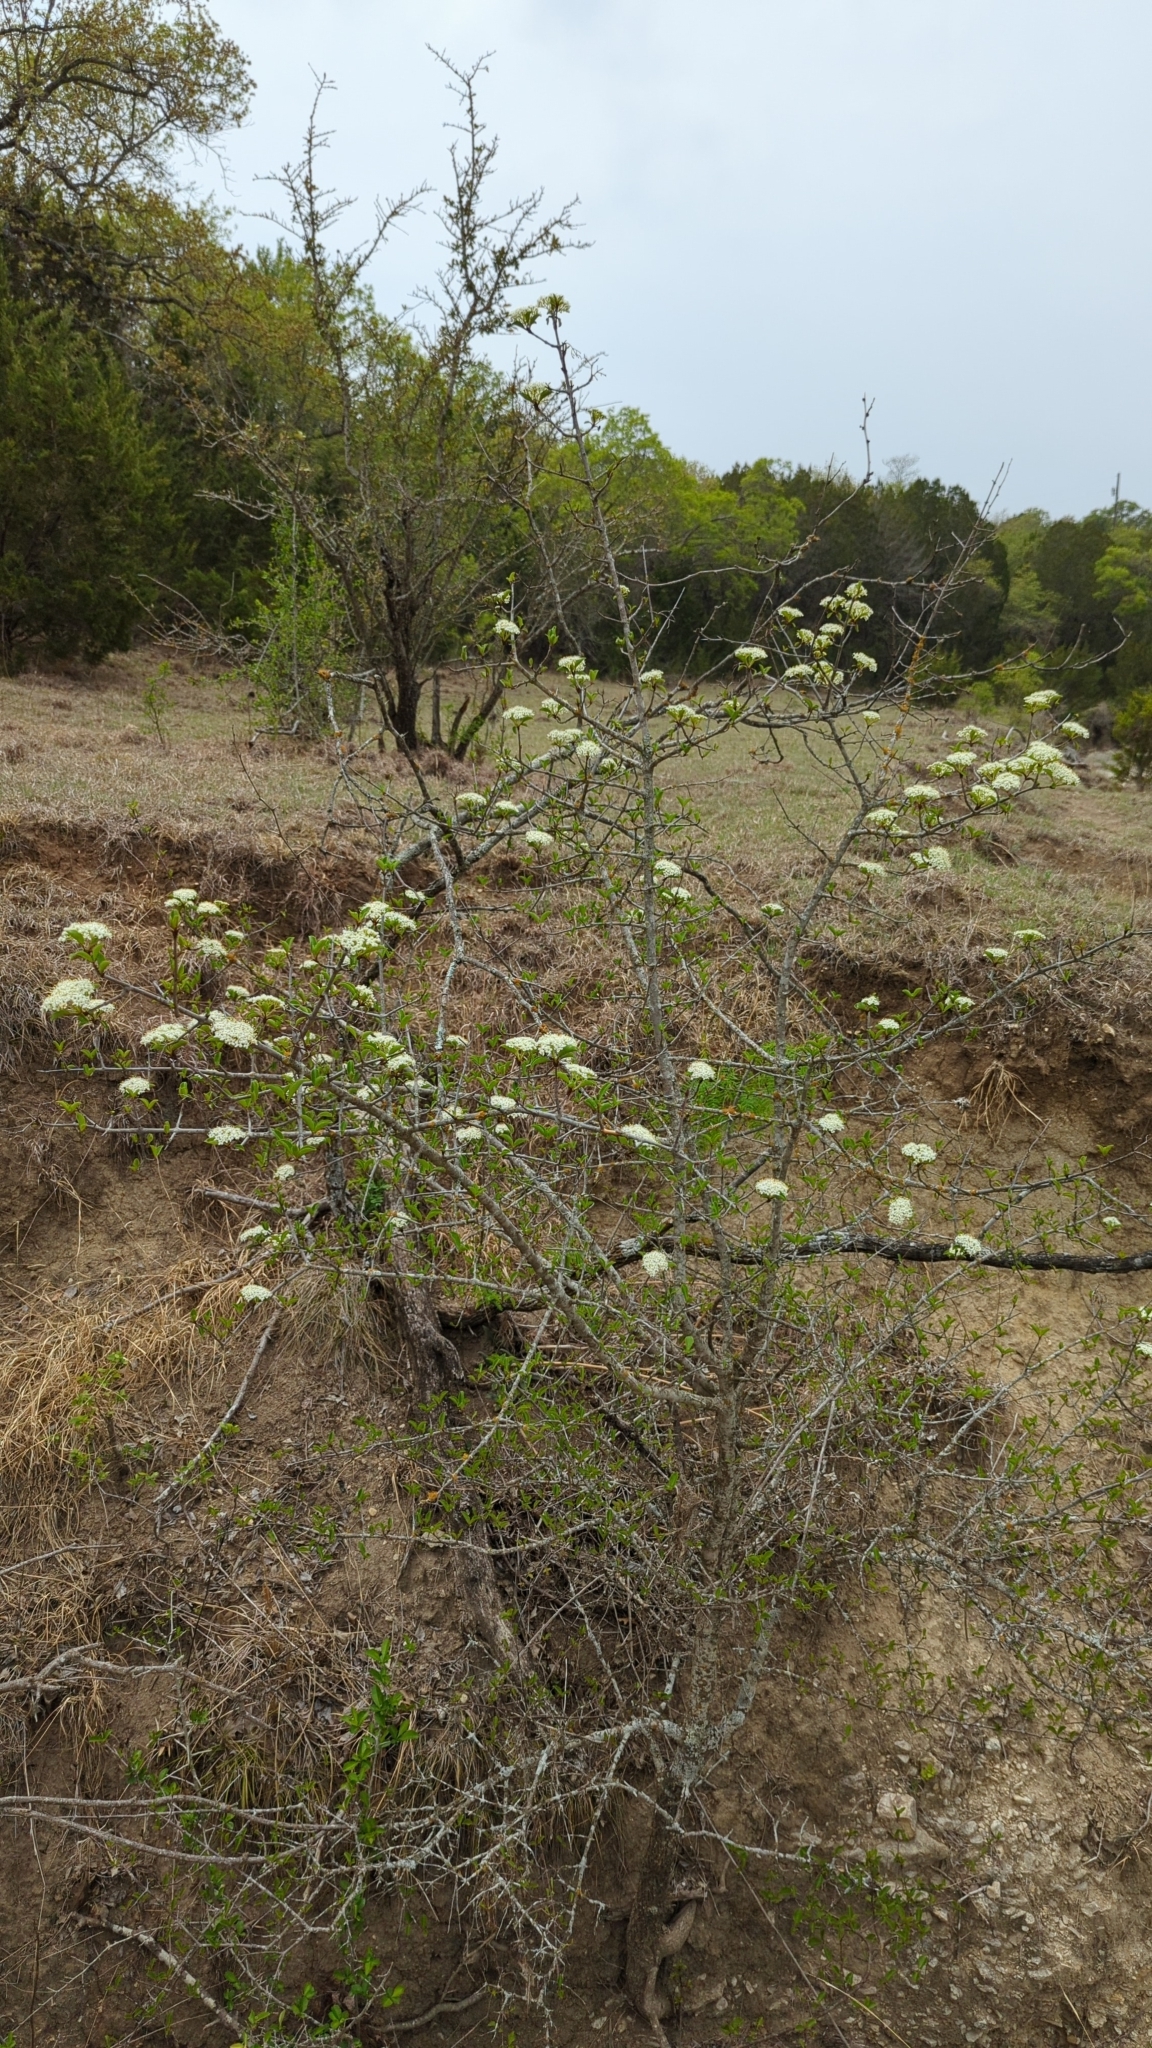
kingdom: Plantae
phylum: Tracheophyta
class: Magnoliopsida
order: Dipsacales
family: Viburnaceae
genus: Viburnum
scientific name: Viburnum rufidulum
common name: Blue haw
